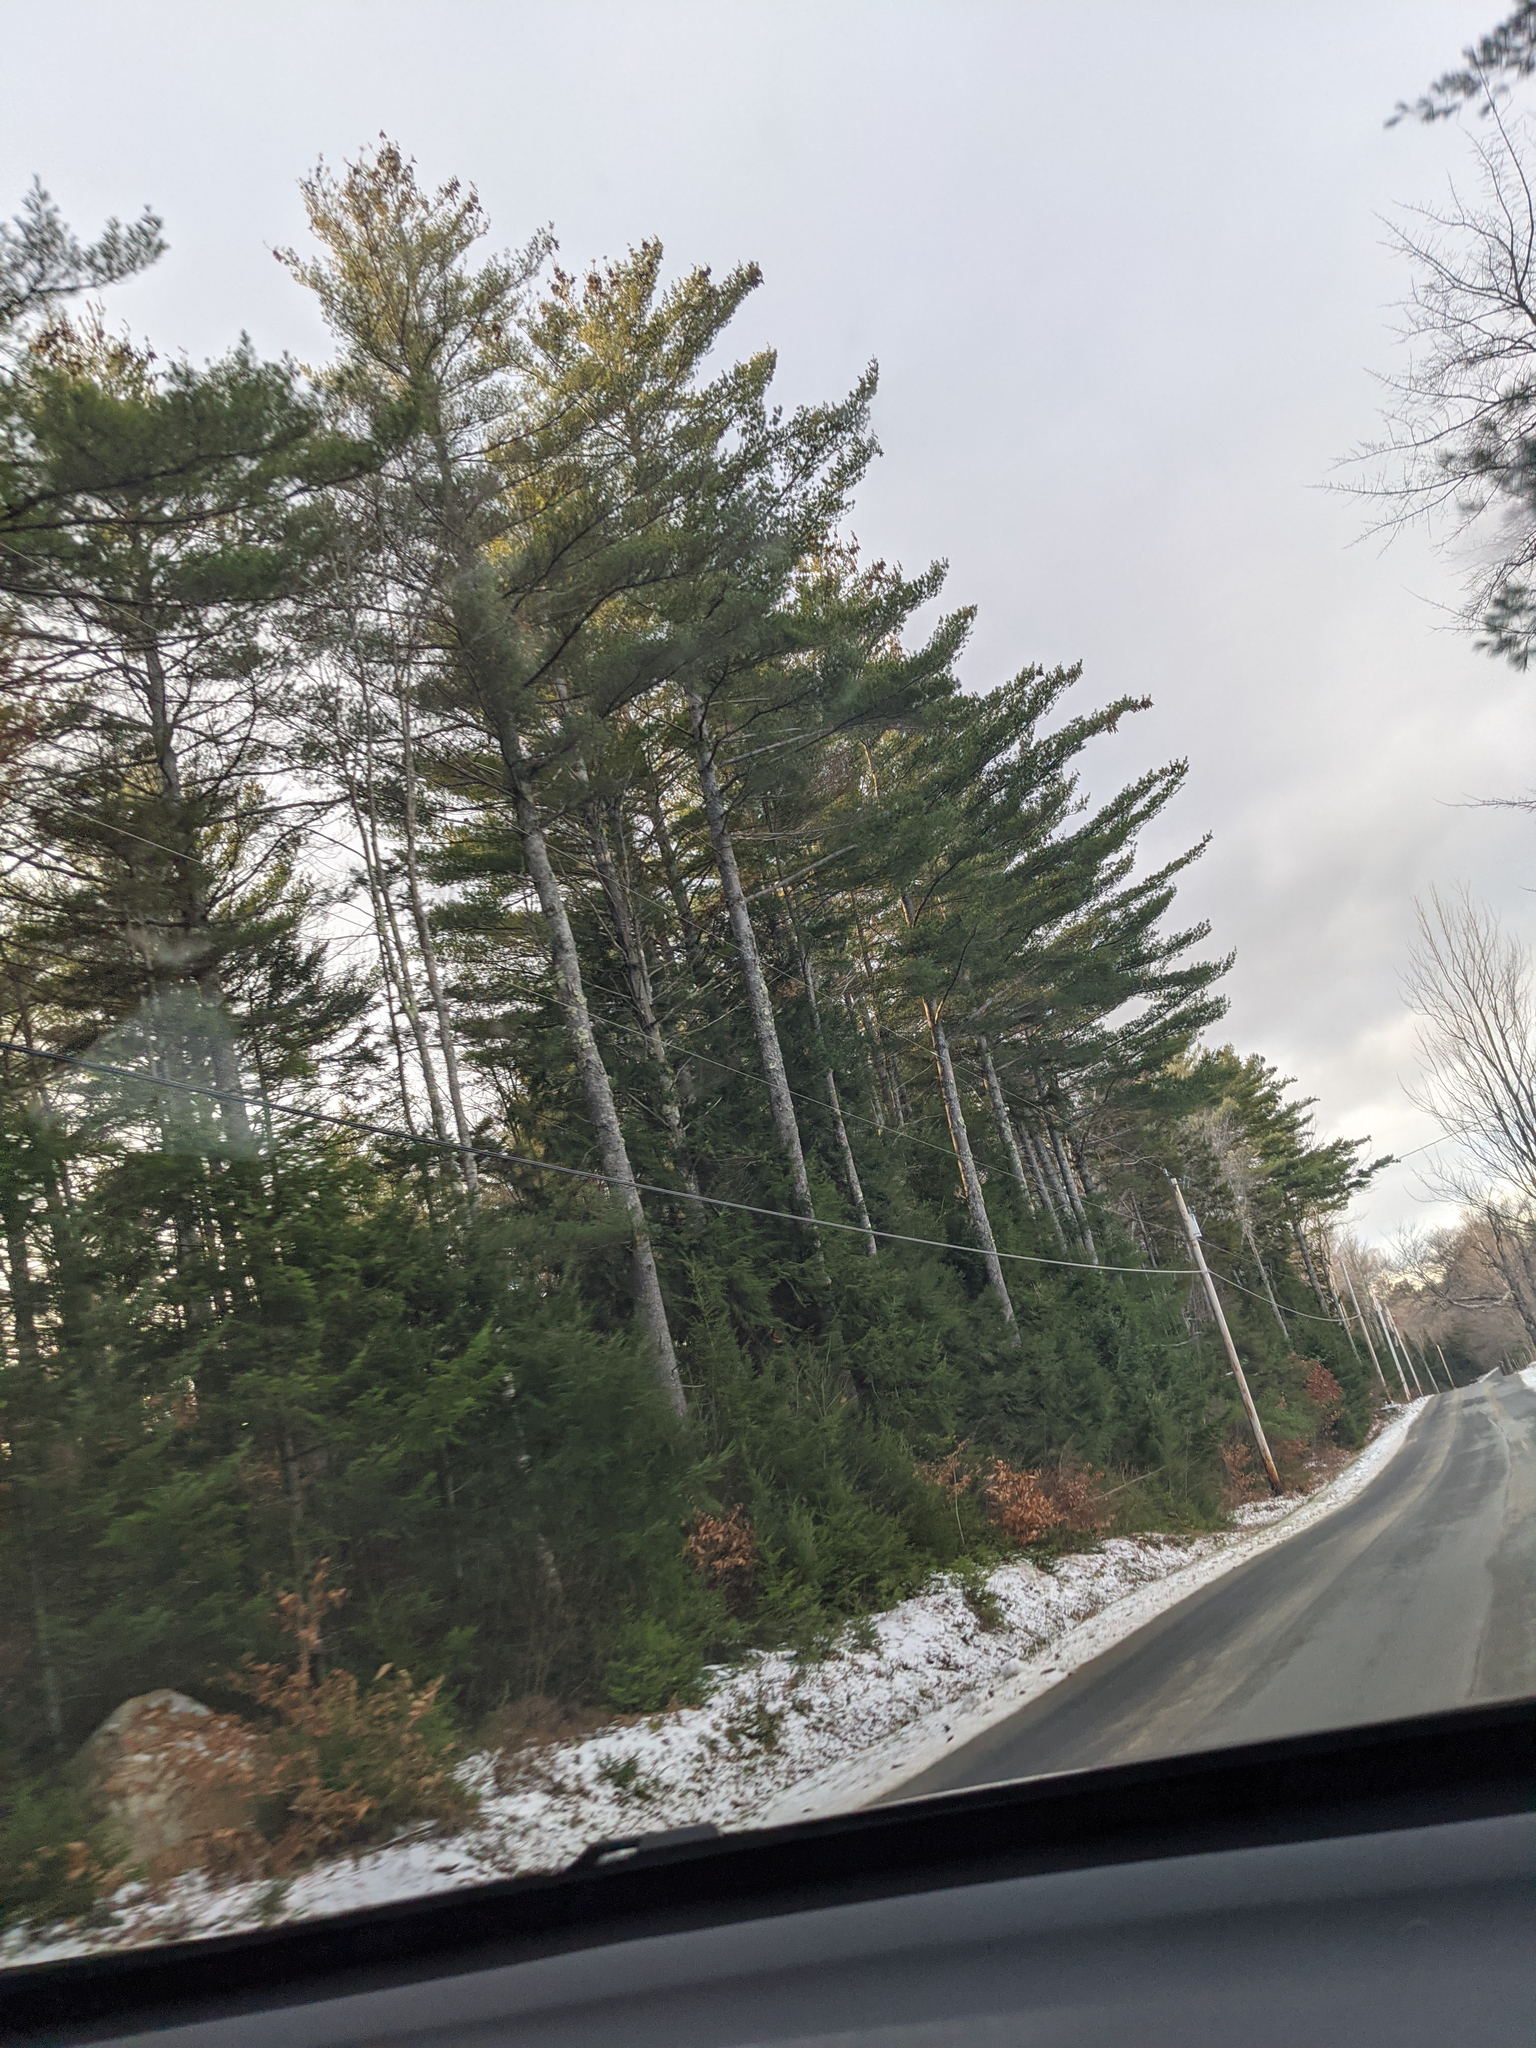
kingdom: Plantae
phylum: Tracheophyta
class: Pinopsida
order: Pinales
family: Pinaceae
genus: Pinus
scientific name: Pinus strobus
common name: Weymouth pine
